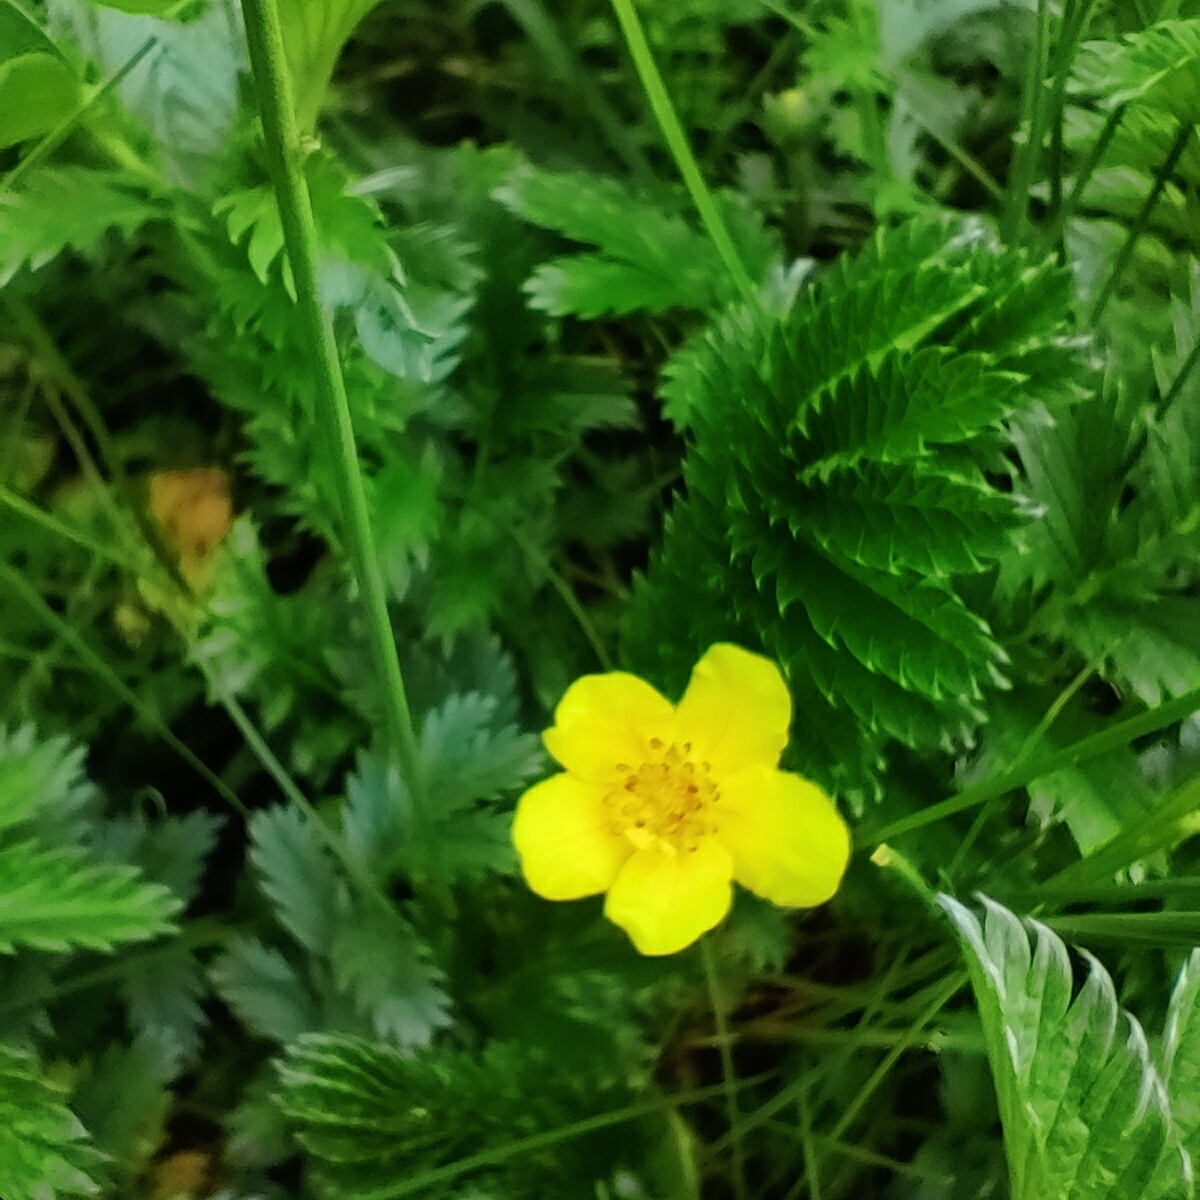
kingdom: Plantae
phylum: Tracheophyta
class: Magnoliopsida
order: Rosales
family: Rosaceae
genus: Argentina
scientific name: Argentina anserina
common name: Common silverweed
